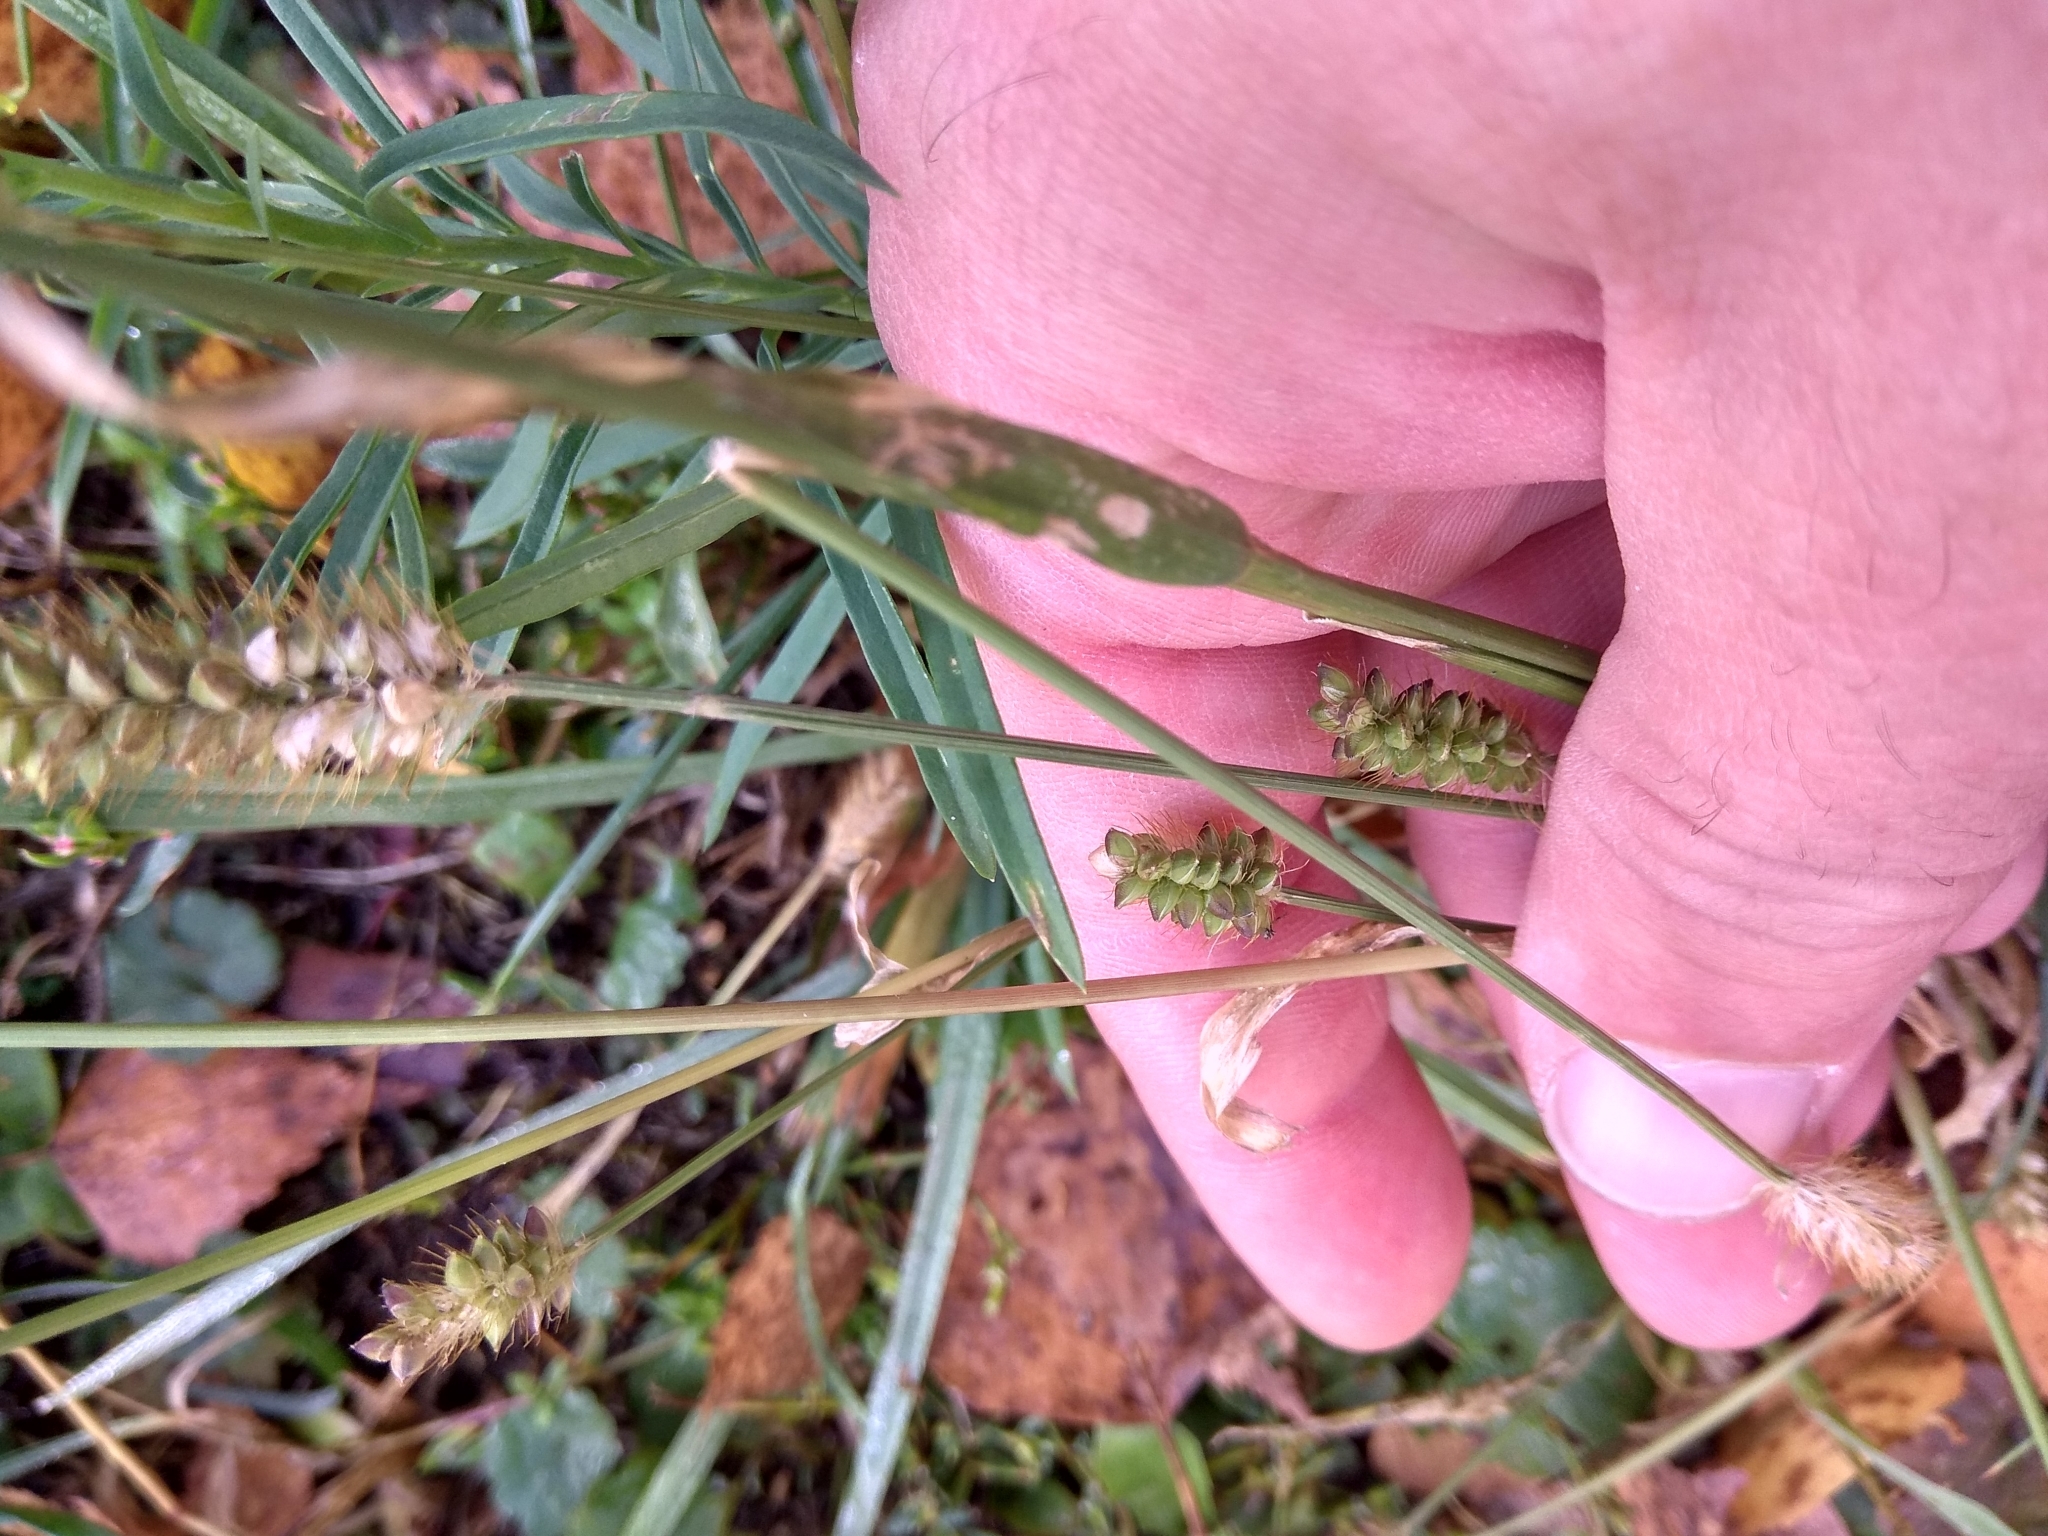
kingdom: Plantae
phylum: Tracheophyta
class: Liliopsida
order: Poales
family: Poaceae
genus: Setaria
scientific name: Setaria pumila
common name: Yellow bristle-grass
